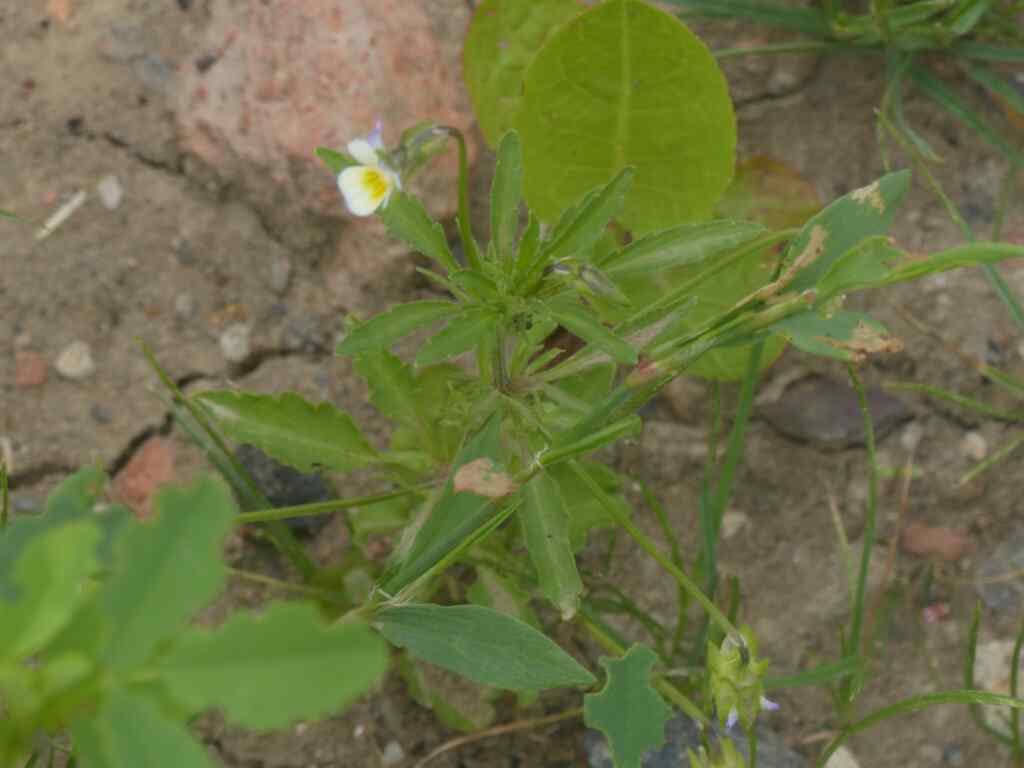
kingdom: Plantae
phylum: Tracheophyta
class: Magnoliopsida
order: Malpighiales
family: Violaceae
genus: Viola
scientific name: Viola arvensis
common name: Field pansy
